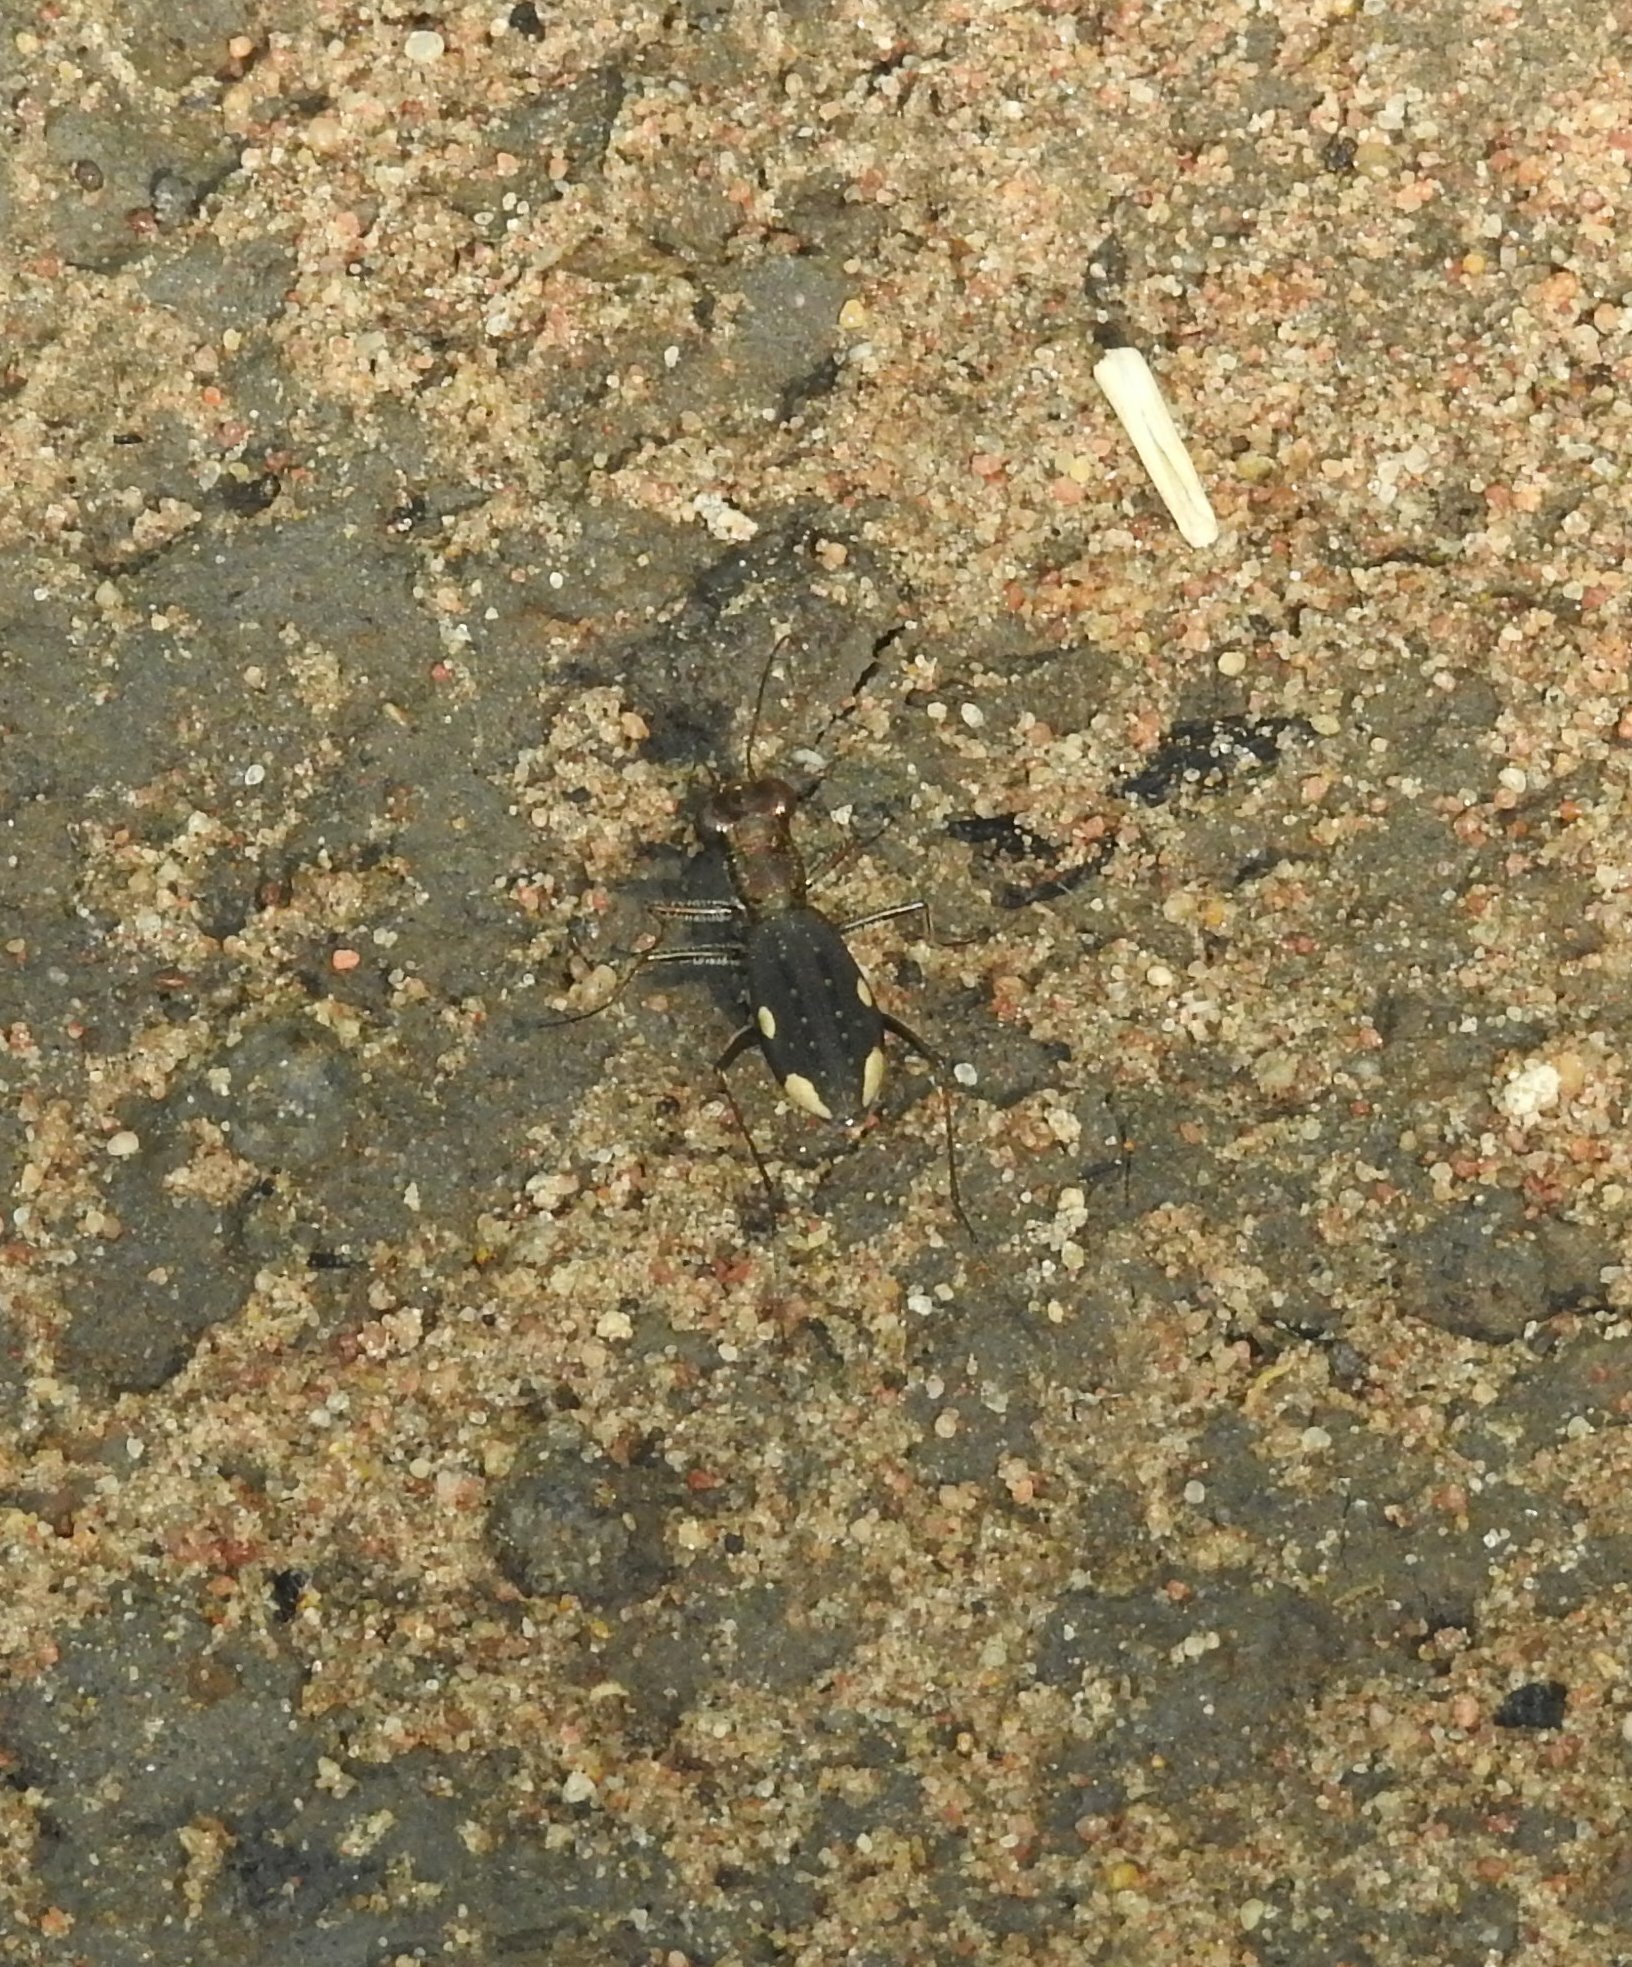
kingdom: Animalia
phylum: Arthropoda
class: Insecta
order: Coleoptera
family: Carabidae
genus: Jansenia
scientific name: Jansenia westermanni
